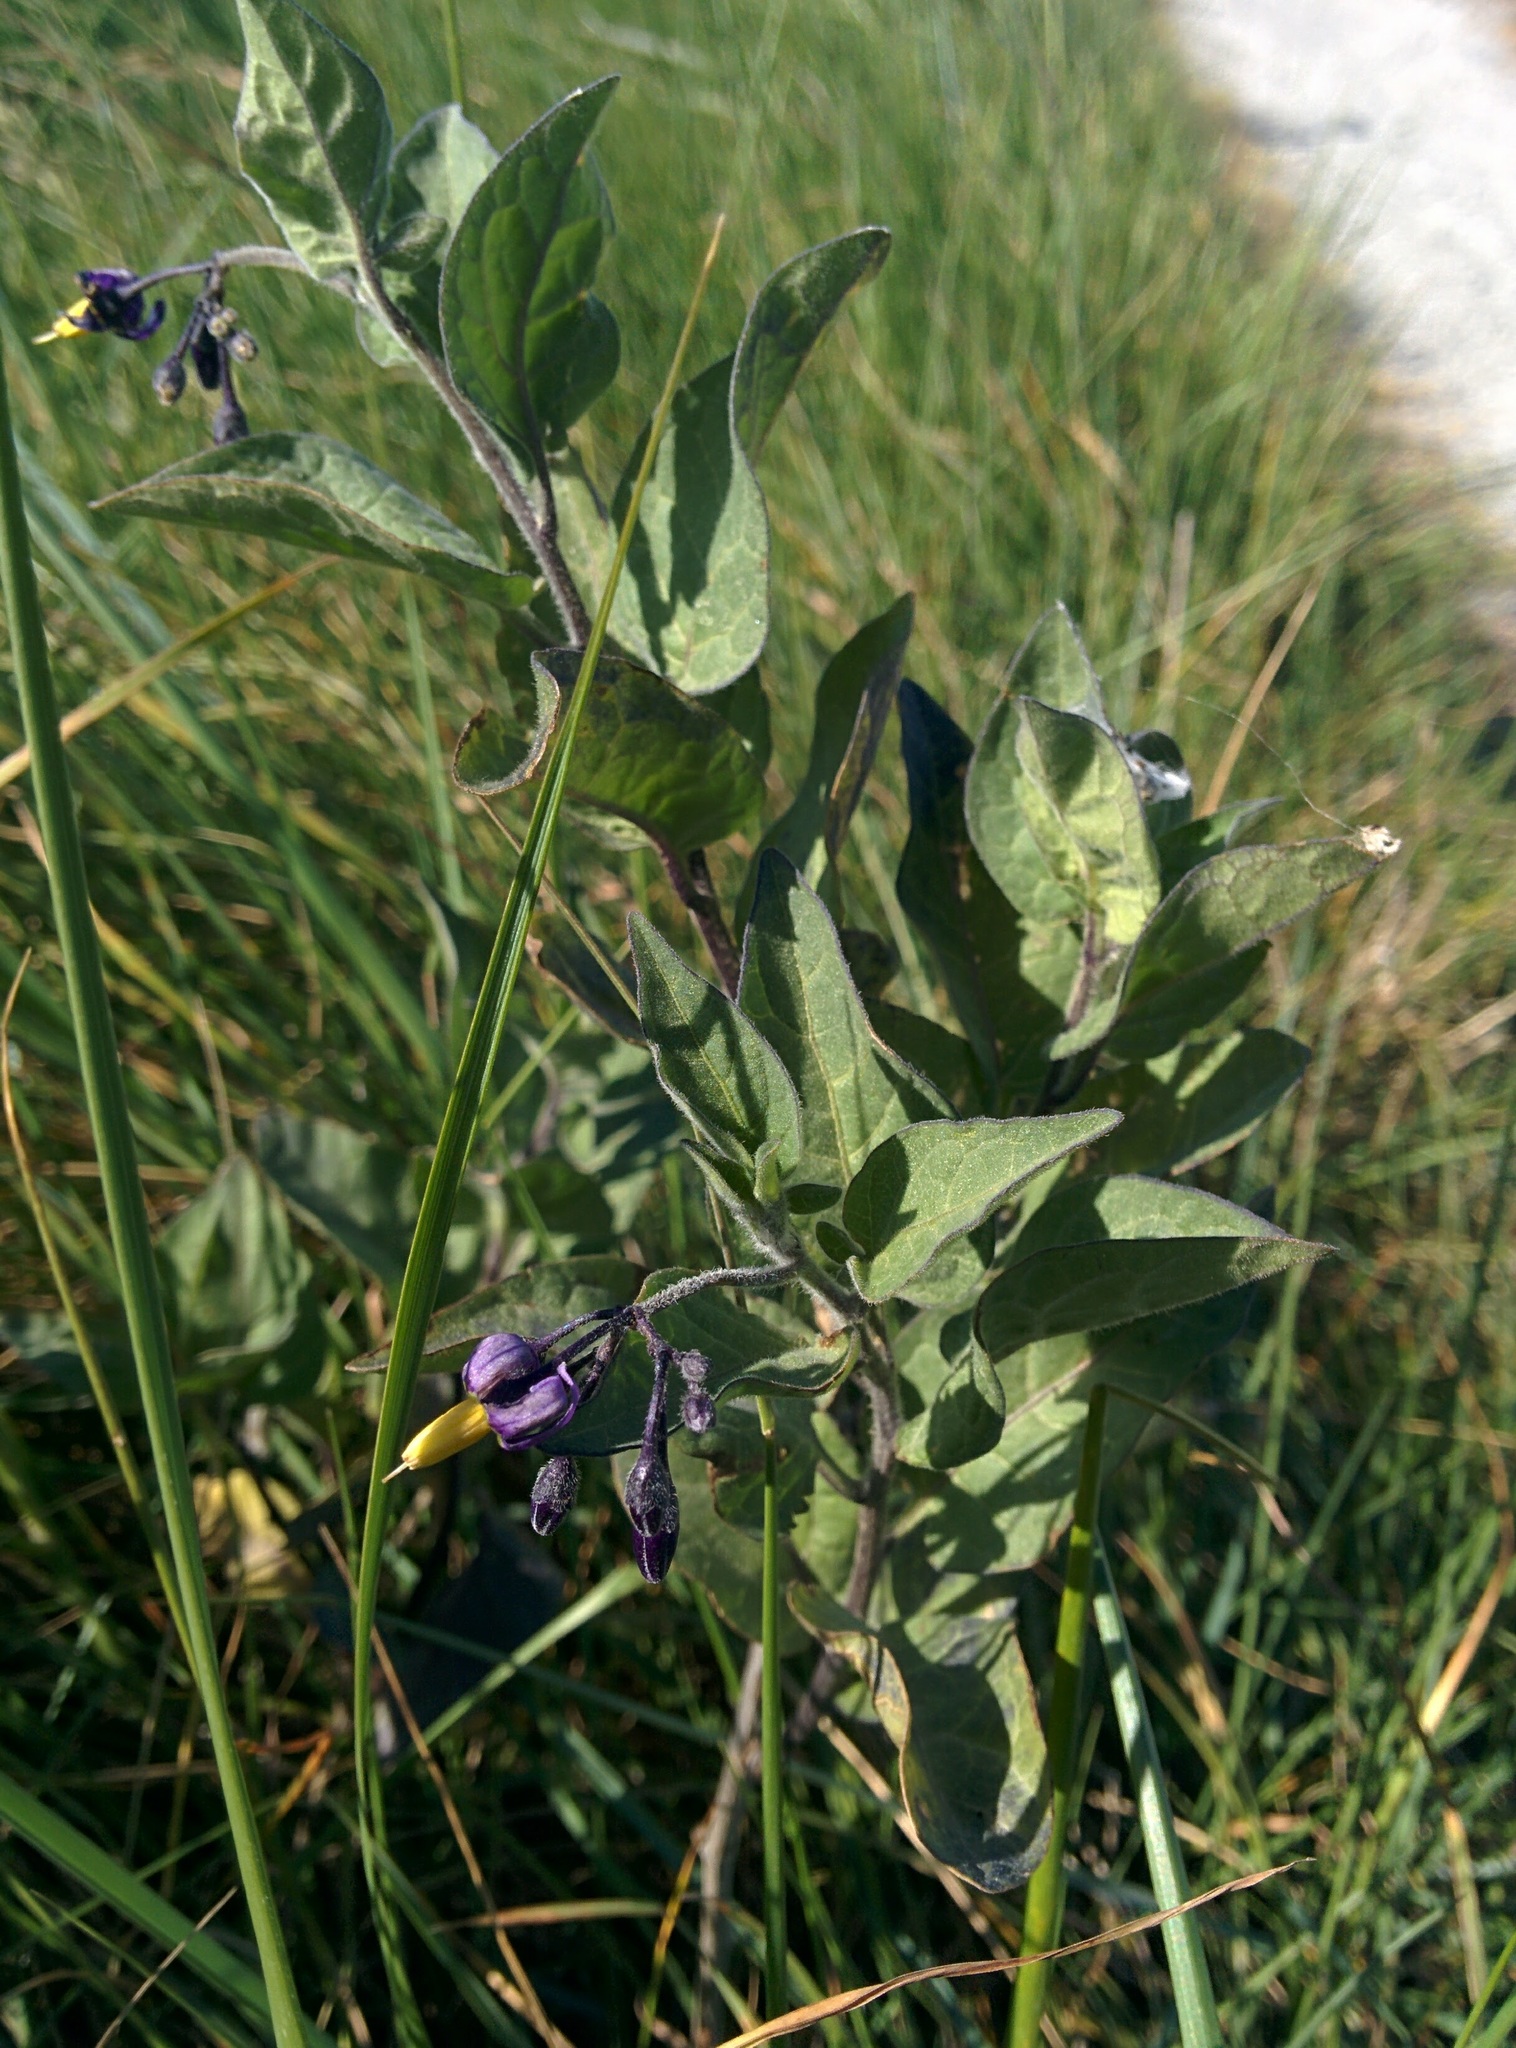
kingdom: Plantae
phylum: Tracheophyta
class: Magnoliopsida
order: Solanales
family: Solanaceae
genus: Solanum
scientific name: Solanum dulcamara
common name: Climbing nightshade
